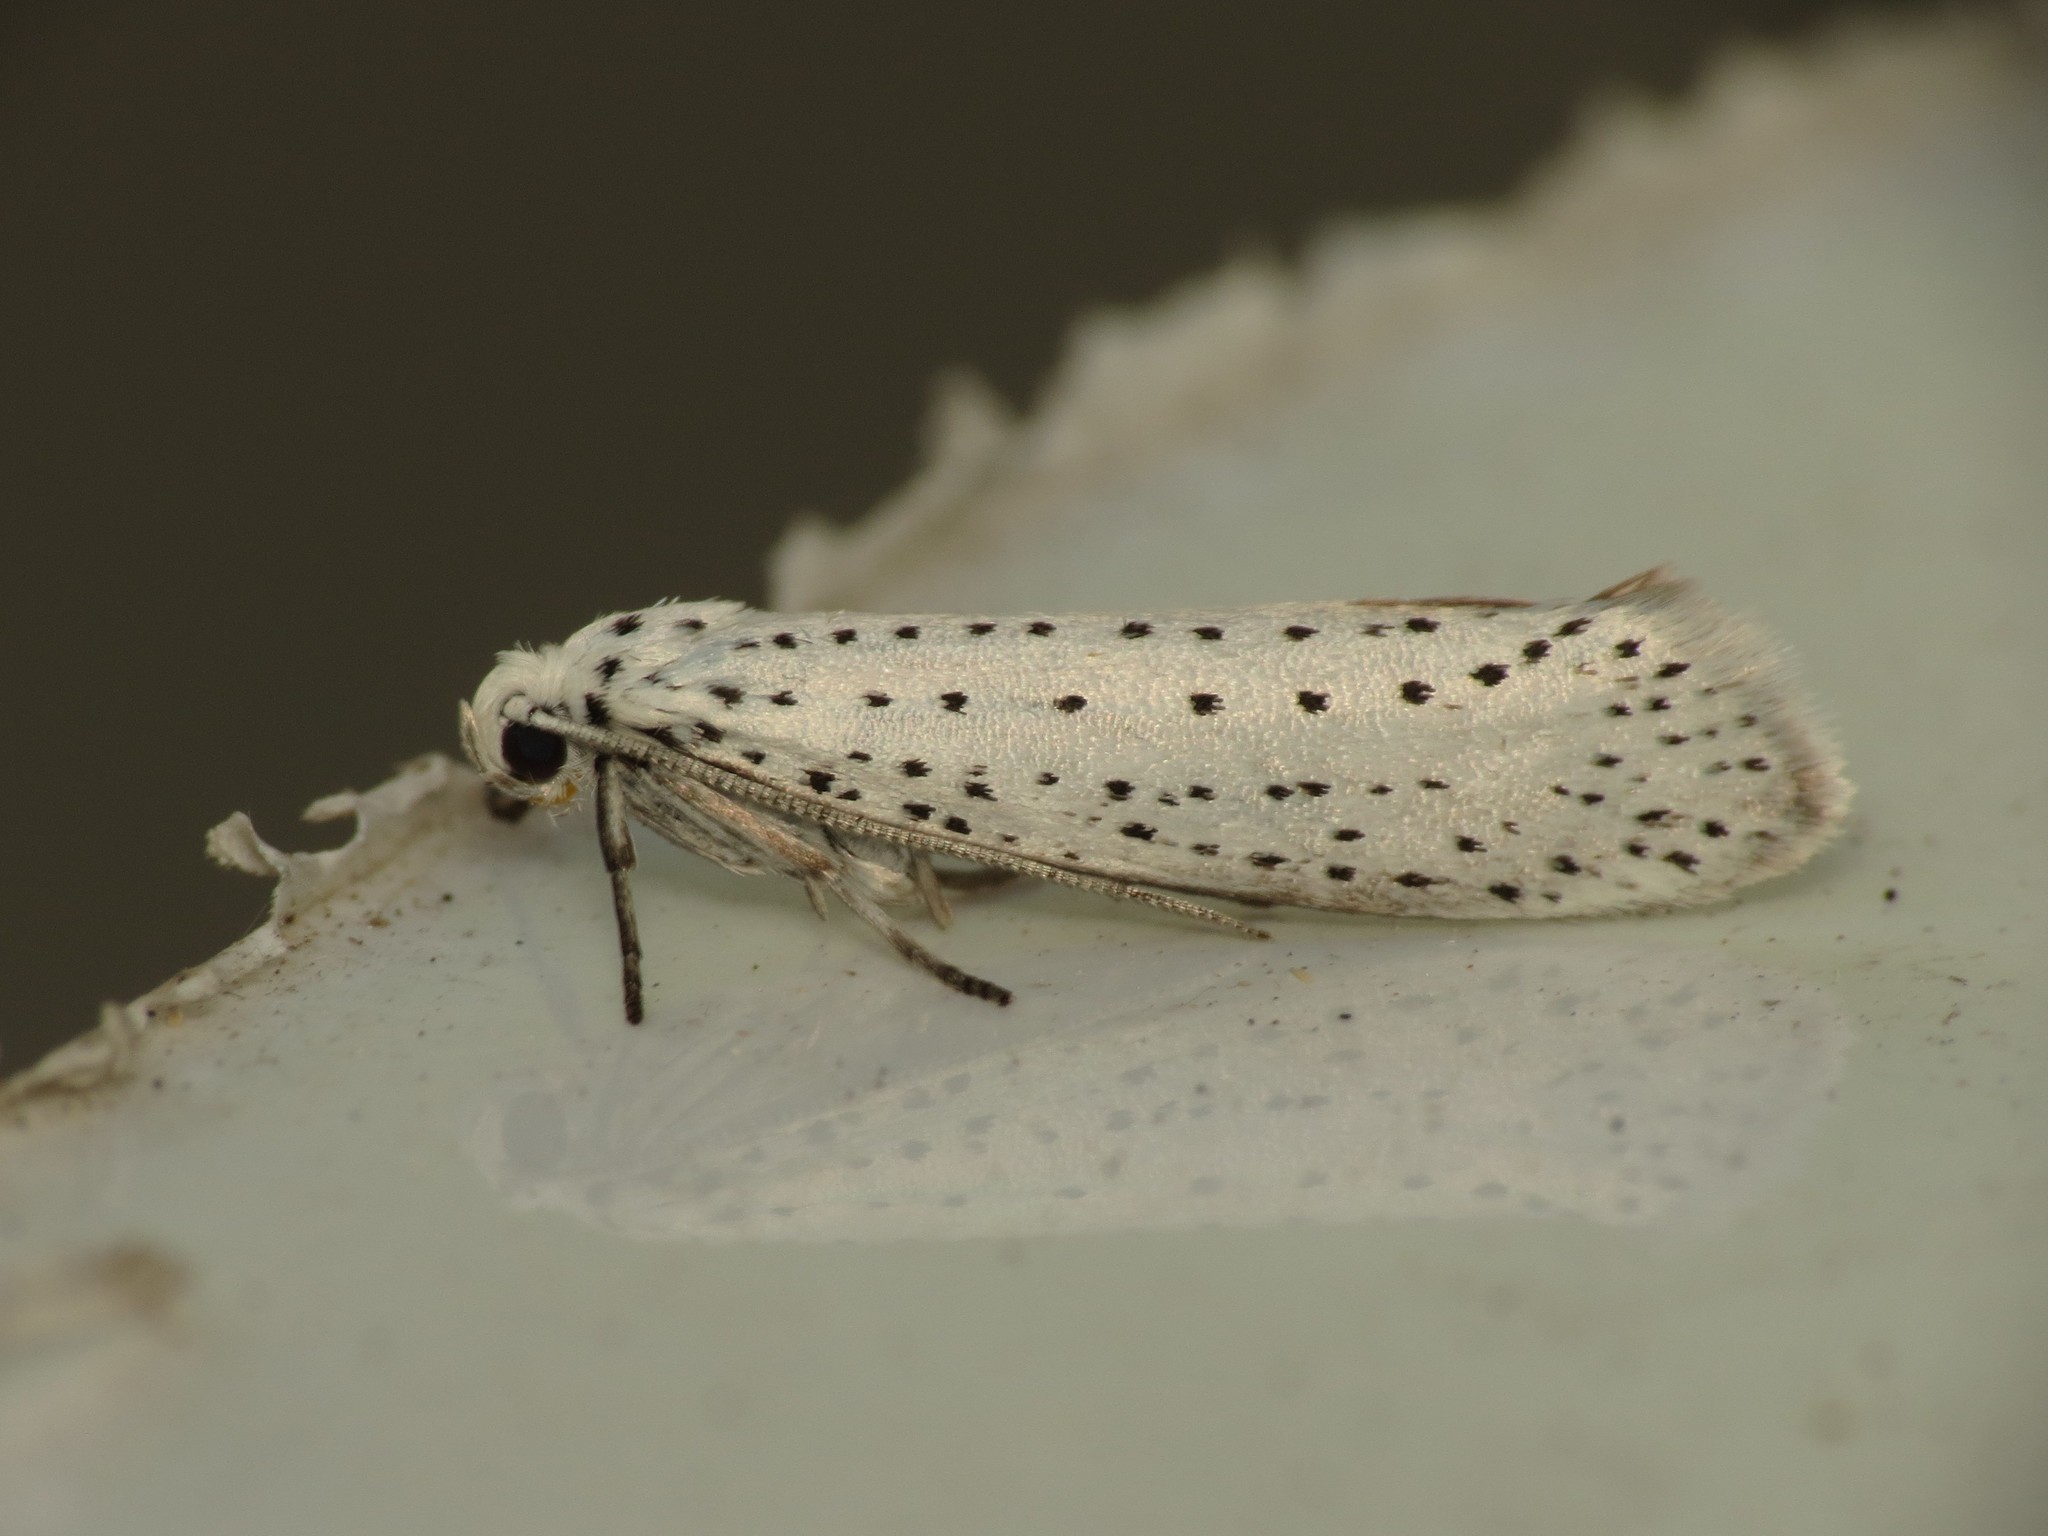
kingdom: Animalia
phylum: Arthropoda
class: Insecta
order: Lepidoptera
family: Yponomeutidae
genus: Yponomeuta
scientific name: Yponomeuta evonymella
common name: Bird-cherry ermine
